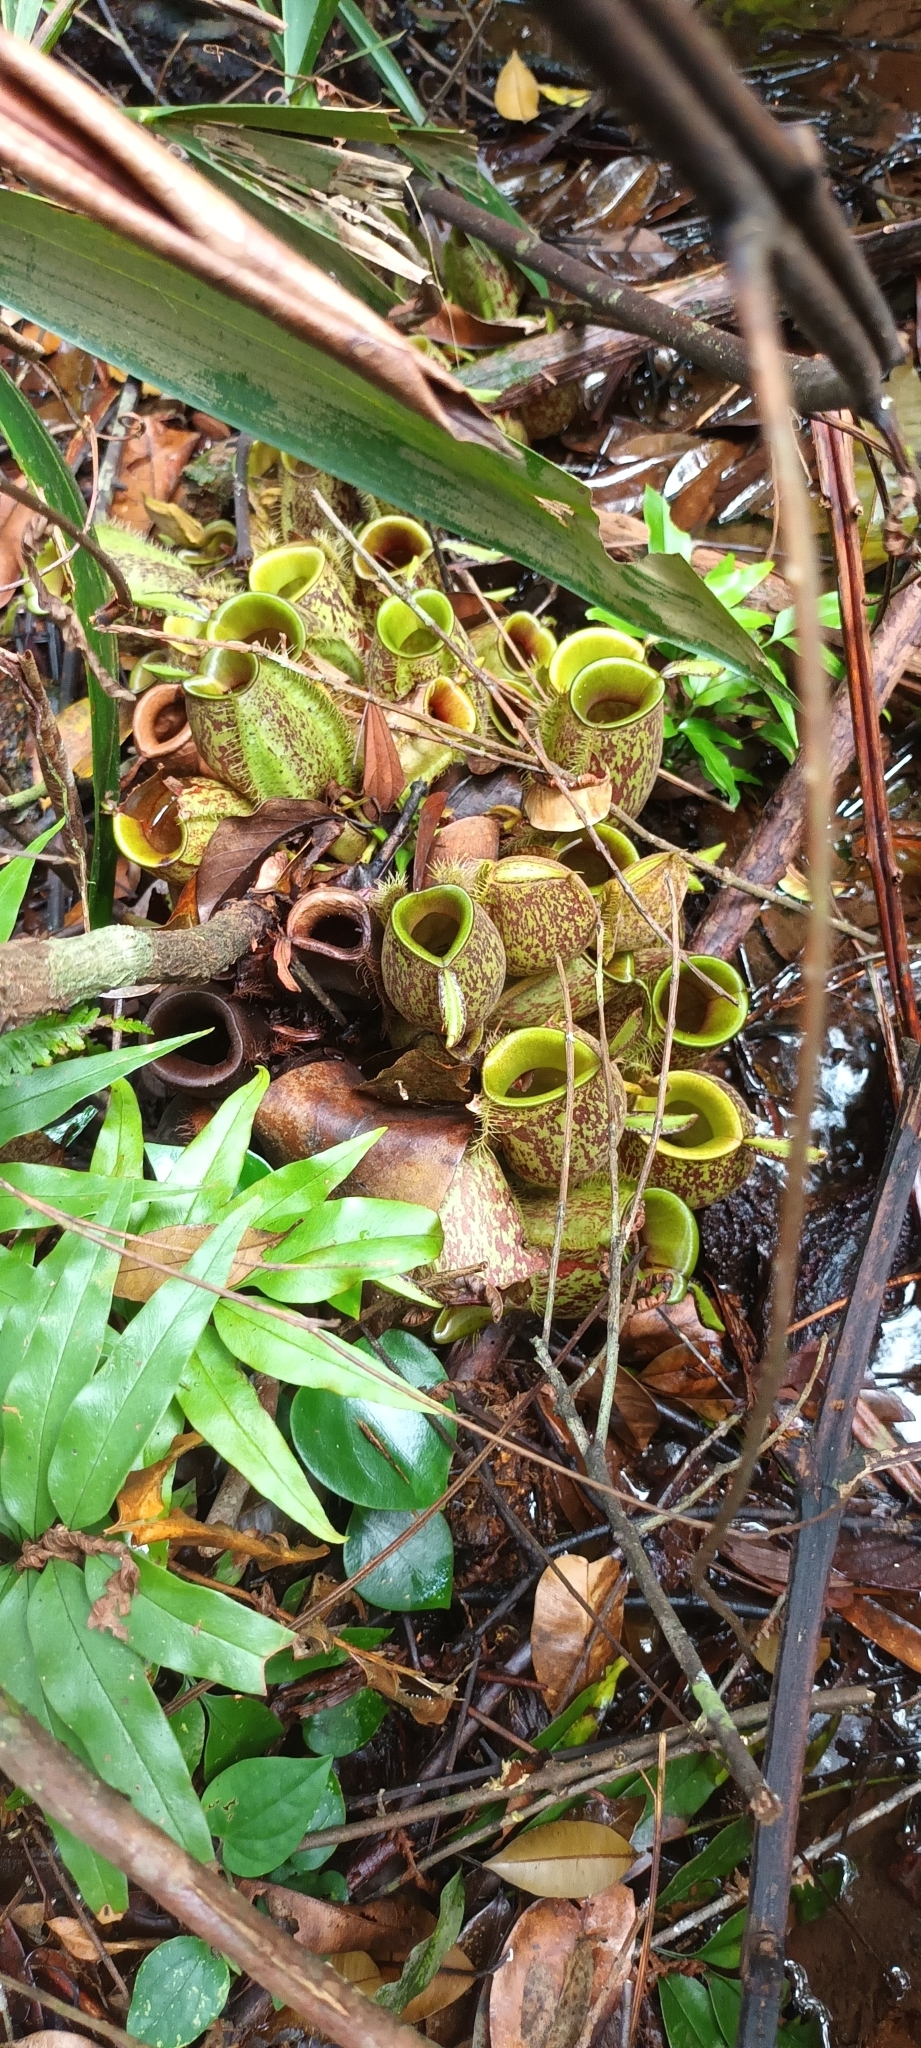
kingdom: Plantae
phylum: Tracheophyta
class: Magnoliopsida
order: Caryophyllales
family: Nepenthaceae
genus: Nepenthes
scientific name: Nepenthes ampullaria
